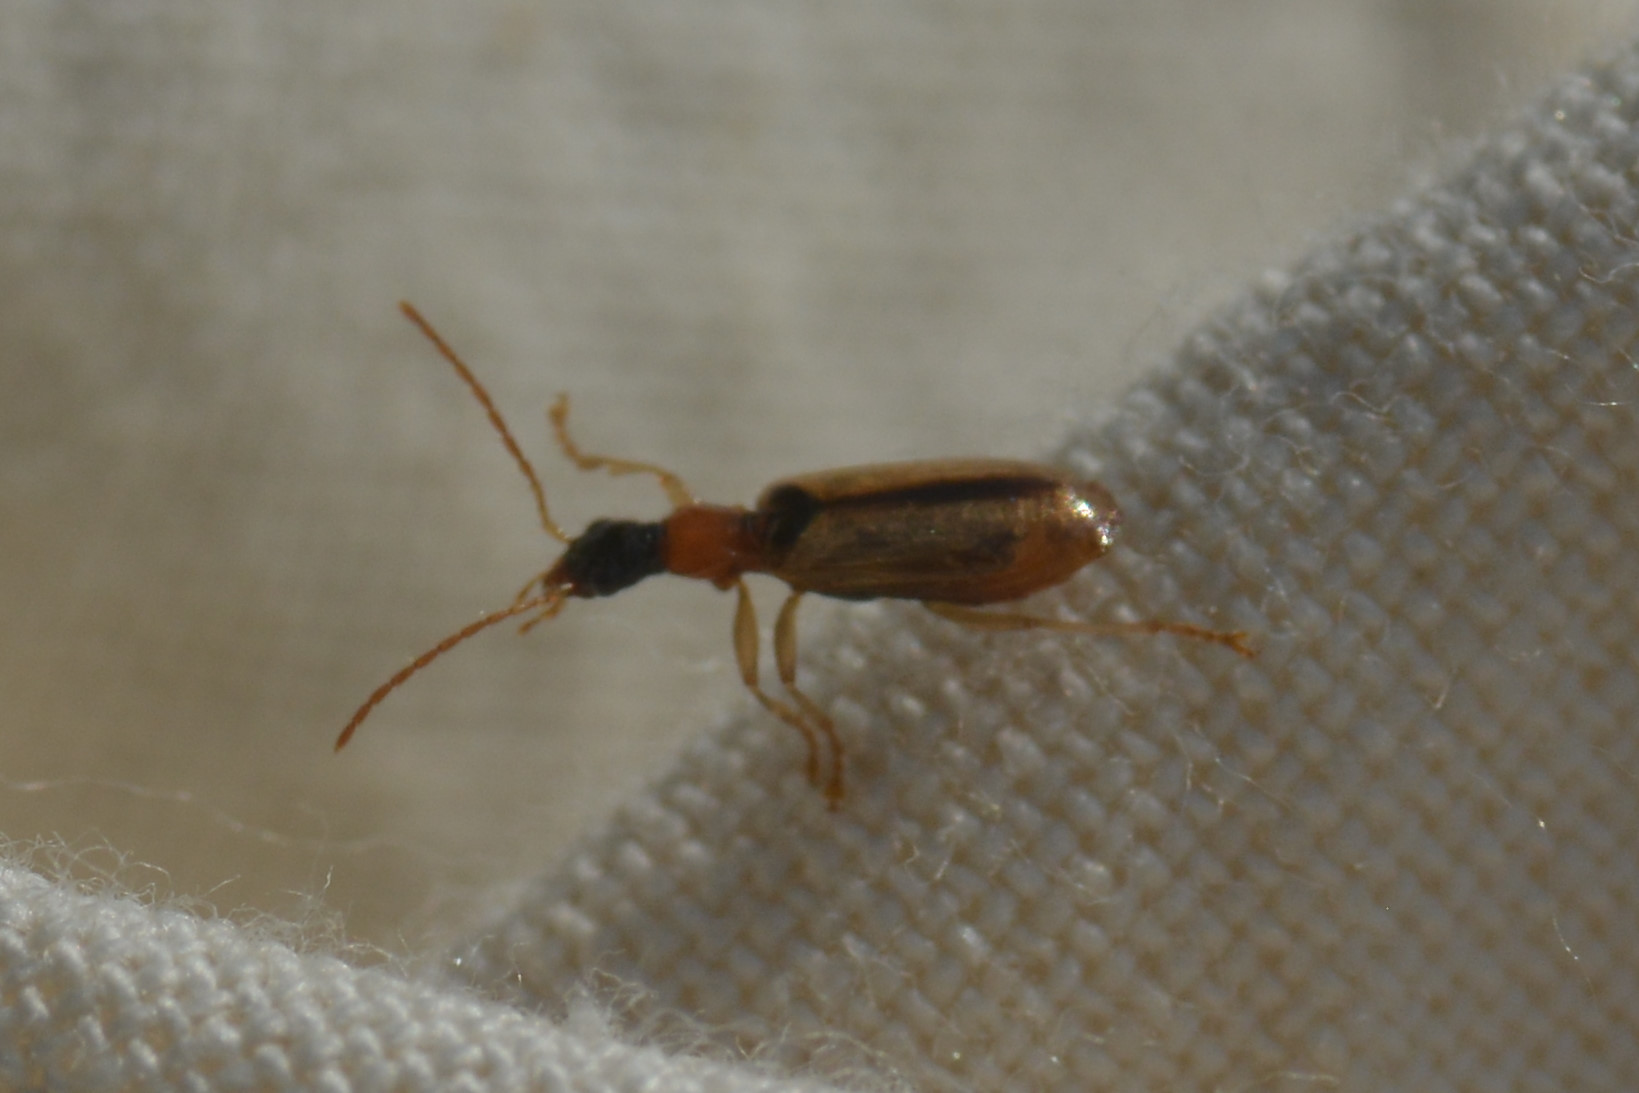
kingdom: Animalia
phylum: Arthropoda
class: Insecta
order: Coleoptera
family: Carabidae
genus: Demetrias
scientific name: Demetrias atricapillus
